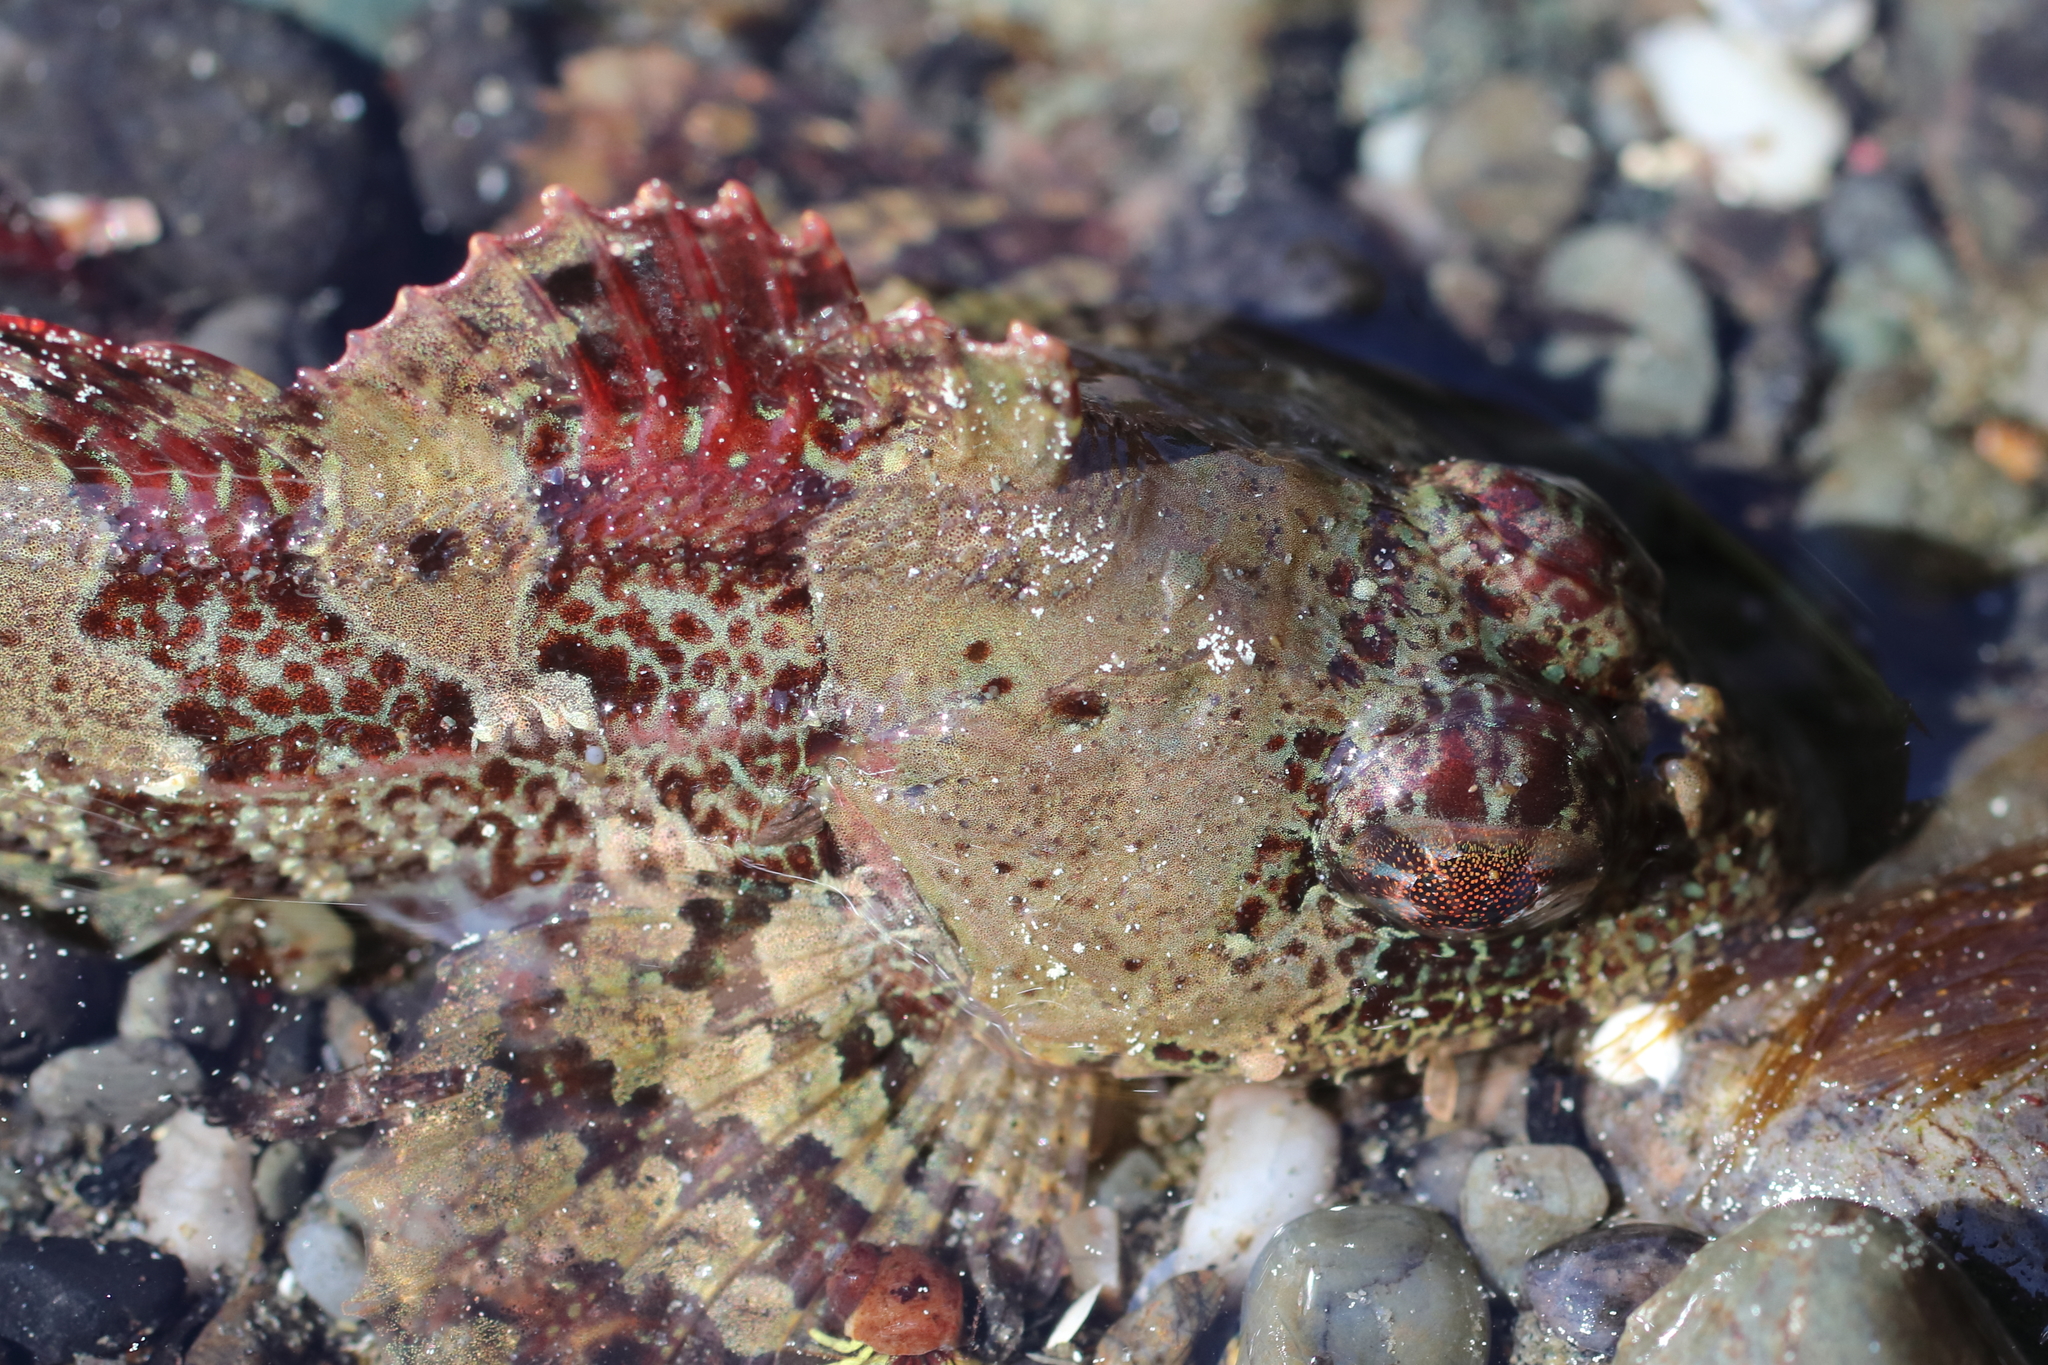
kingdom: Animalia
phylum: Chordata
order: Scorpaeniformes
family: Cottidae
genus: Hemilepidotus
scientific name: Hemilepidotus hemilepidotus
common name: Red irish lord
